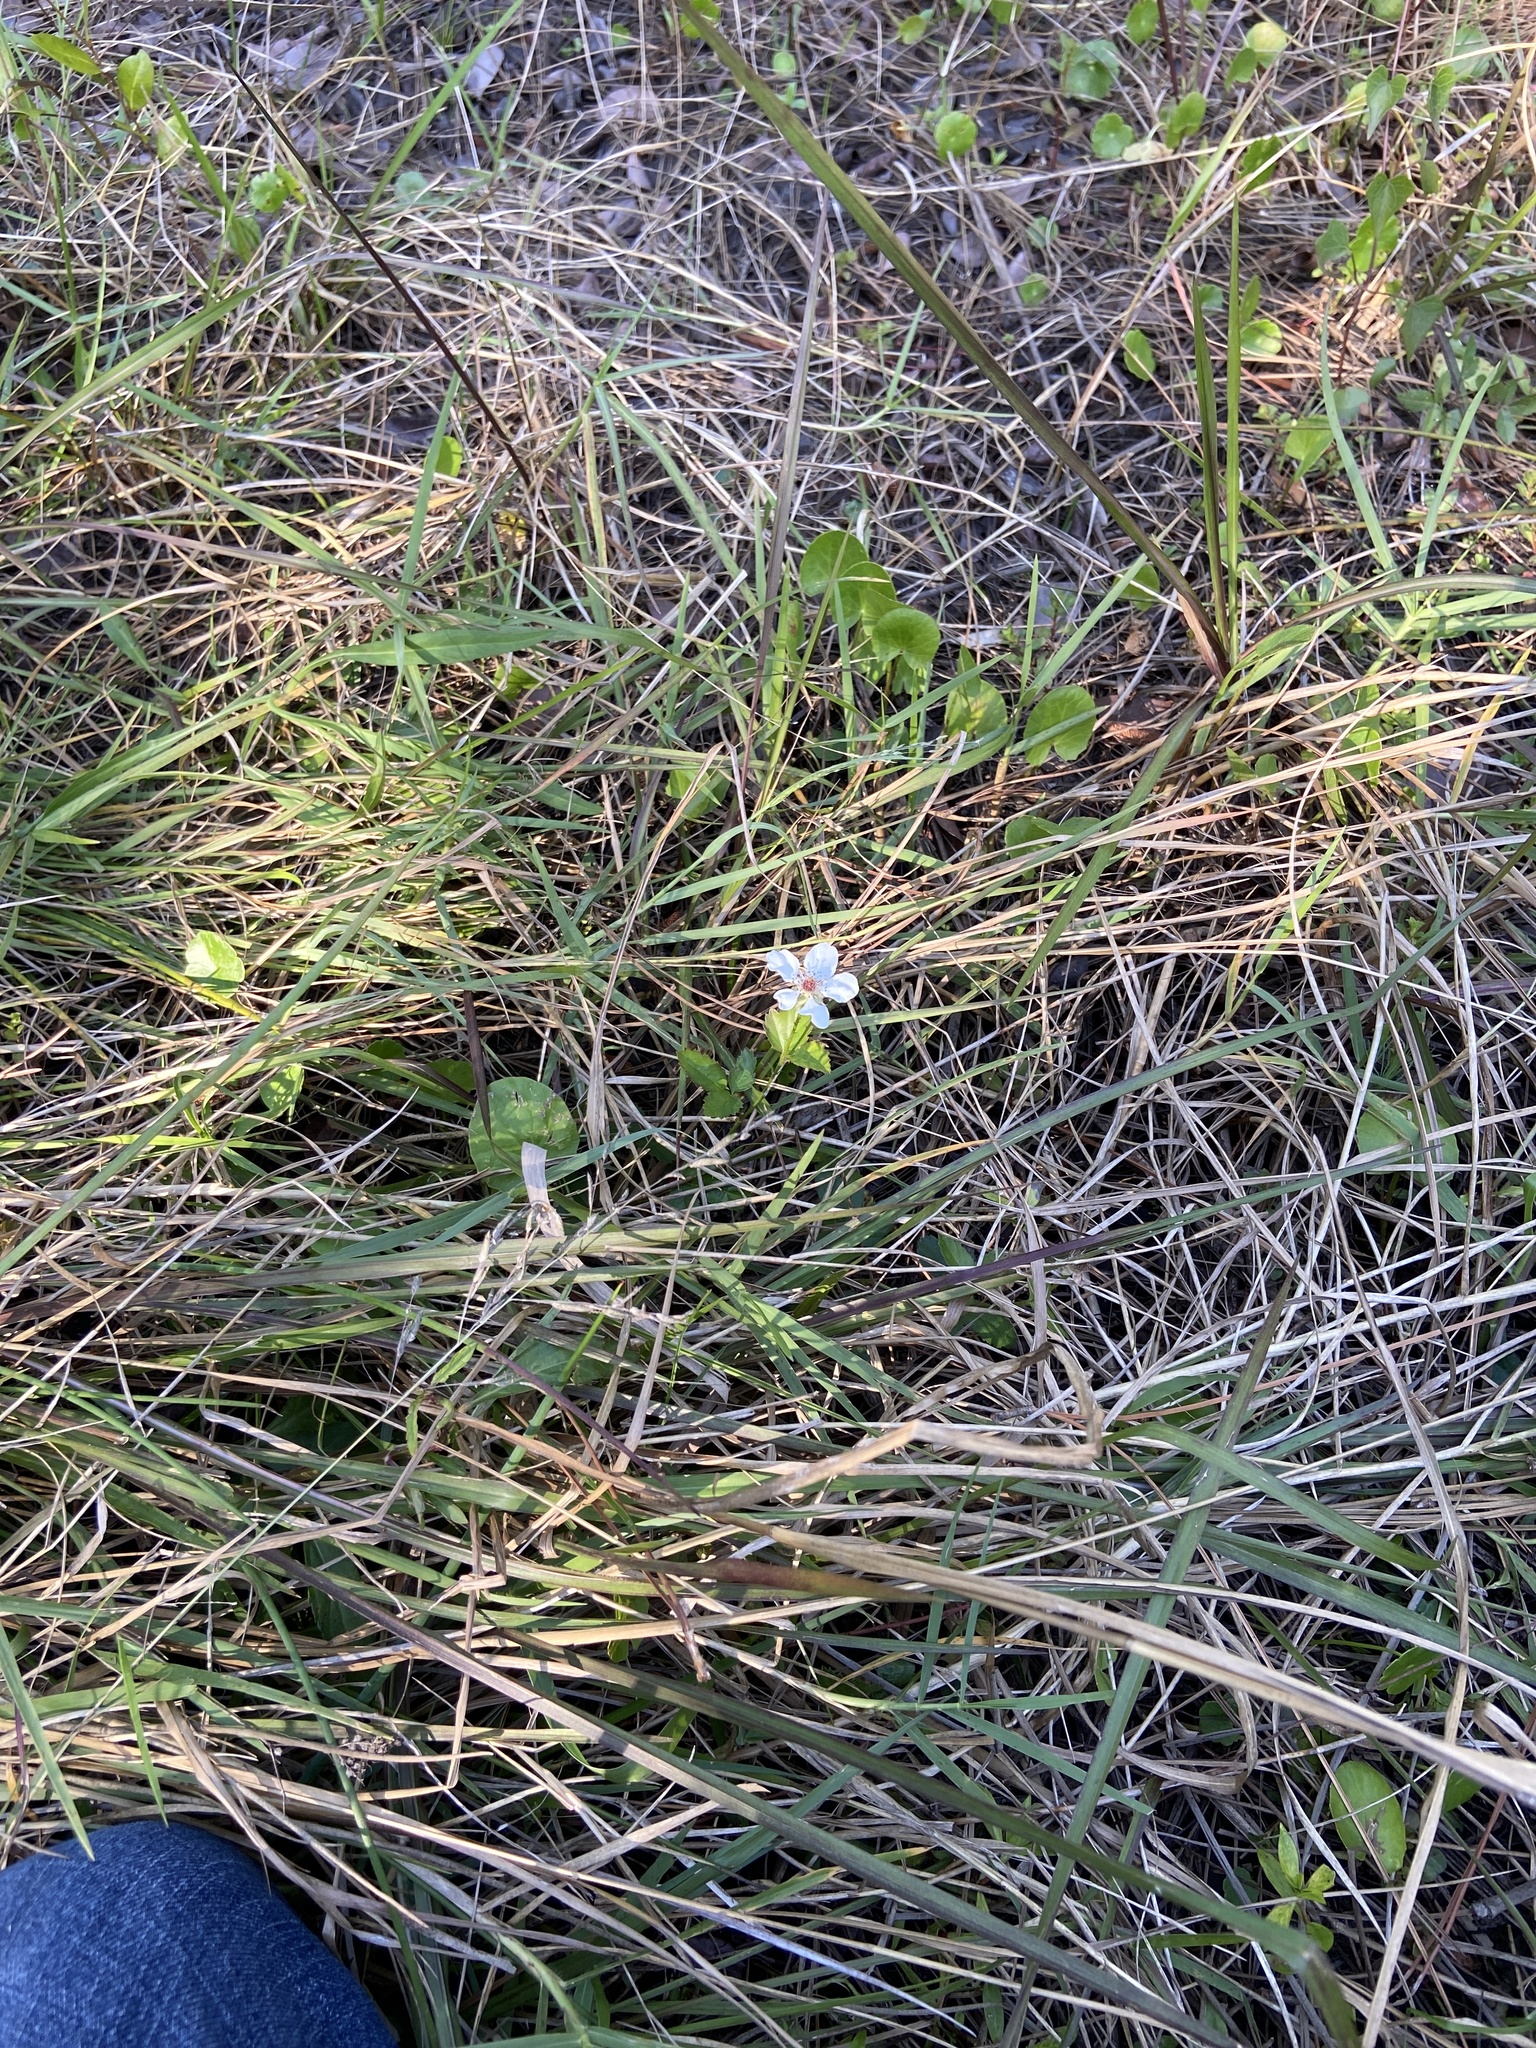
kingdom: Plantae
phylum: Tracheophyta
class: Magnoliopsida
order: Rosales
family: Rosaceae
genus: Rubus
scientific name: Rubus trivialis
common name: Southern dewberry
